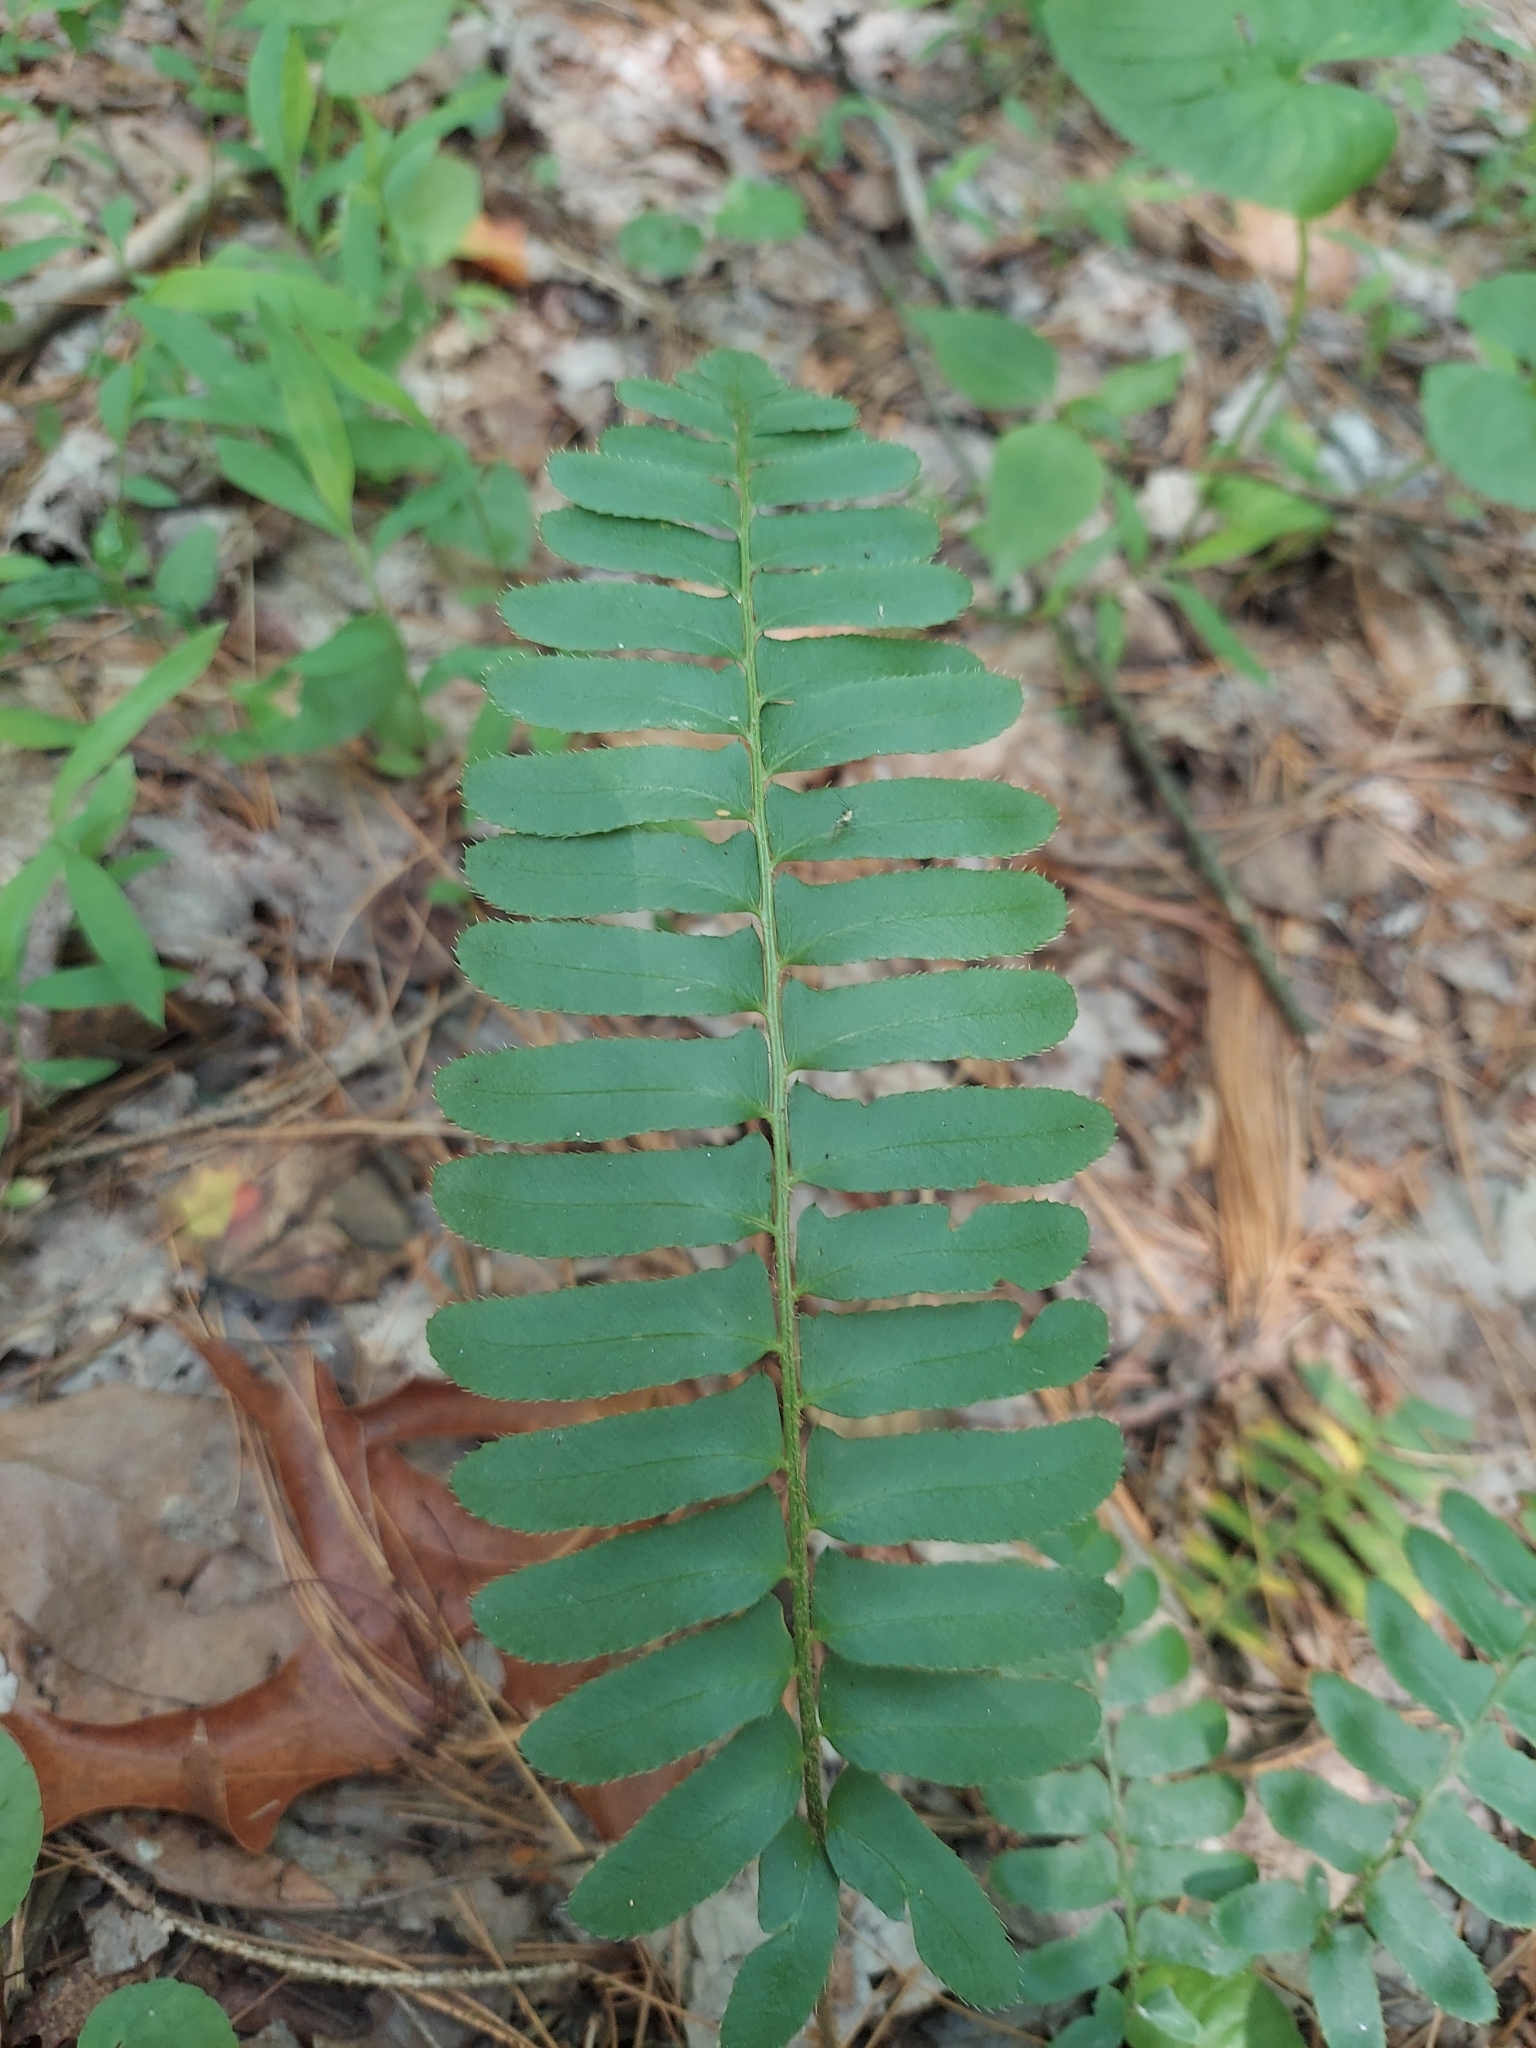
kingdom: Plantae
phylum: Tracheophyta
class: Polypodiopsida
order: Polypodiales
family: Dryopteridaceae
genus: Polystichum
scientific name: Polystichum acrostichoides
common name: Christmas fern
